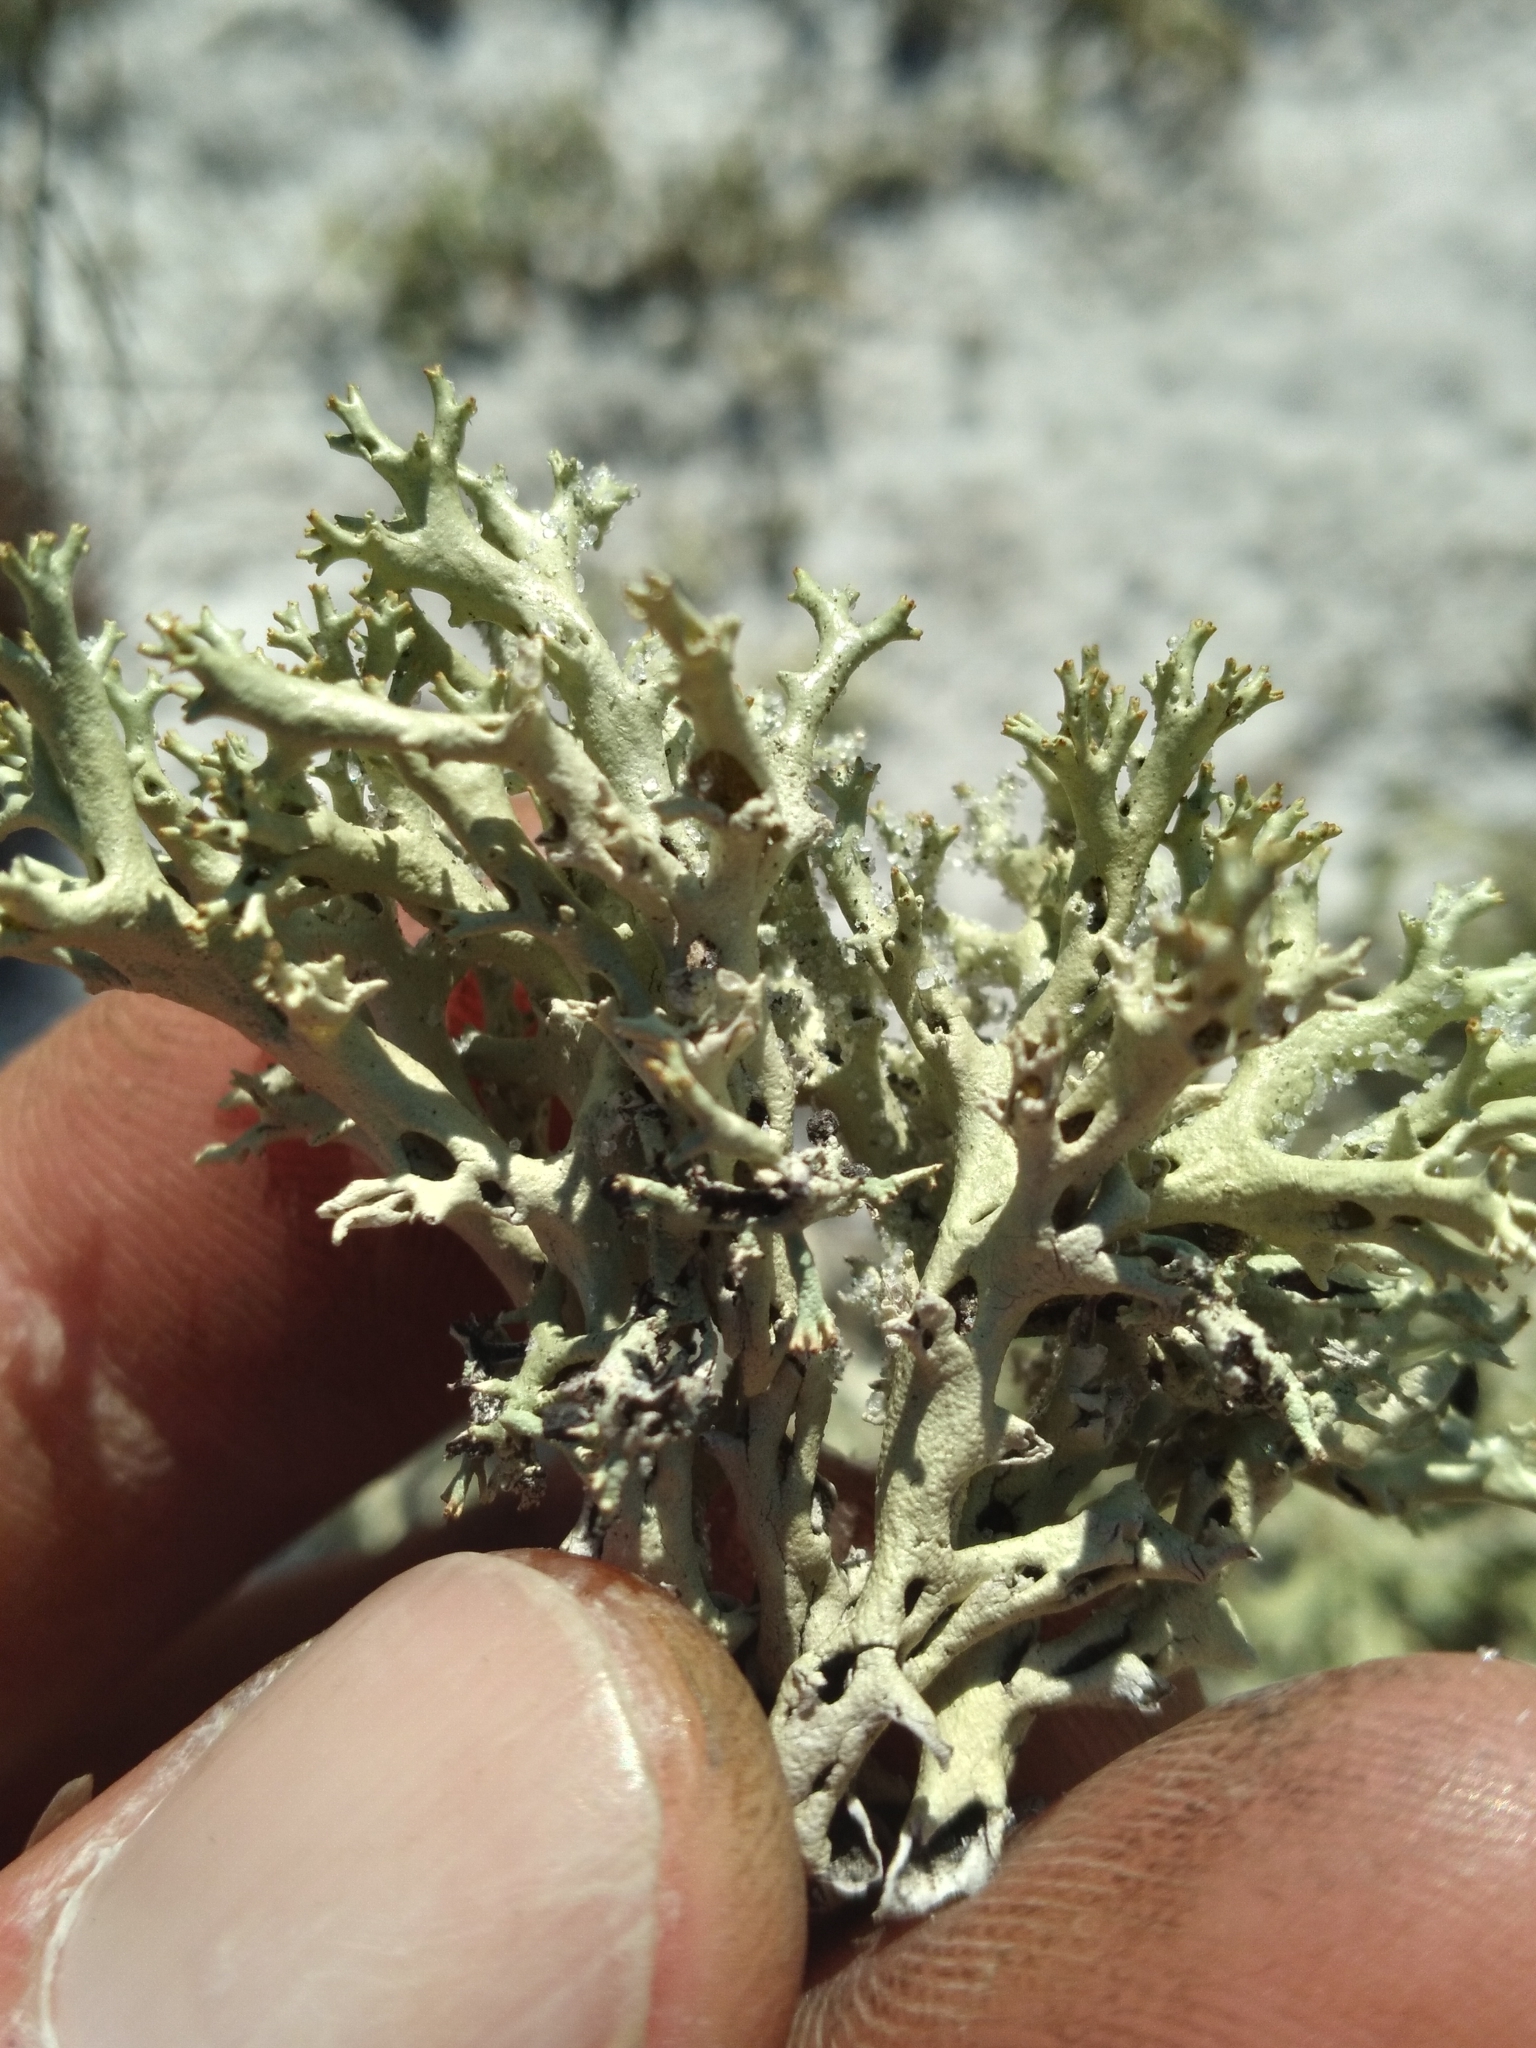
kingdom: Fungi
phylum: Ascomycota
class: Lecanoromycetes
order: Lecanorales
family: Cladoniaceae
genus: Cladonia
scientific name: Cladonia perforata
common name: Florida perforate reindeer lichen
